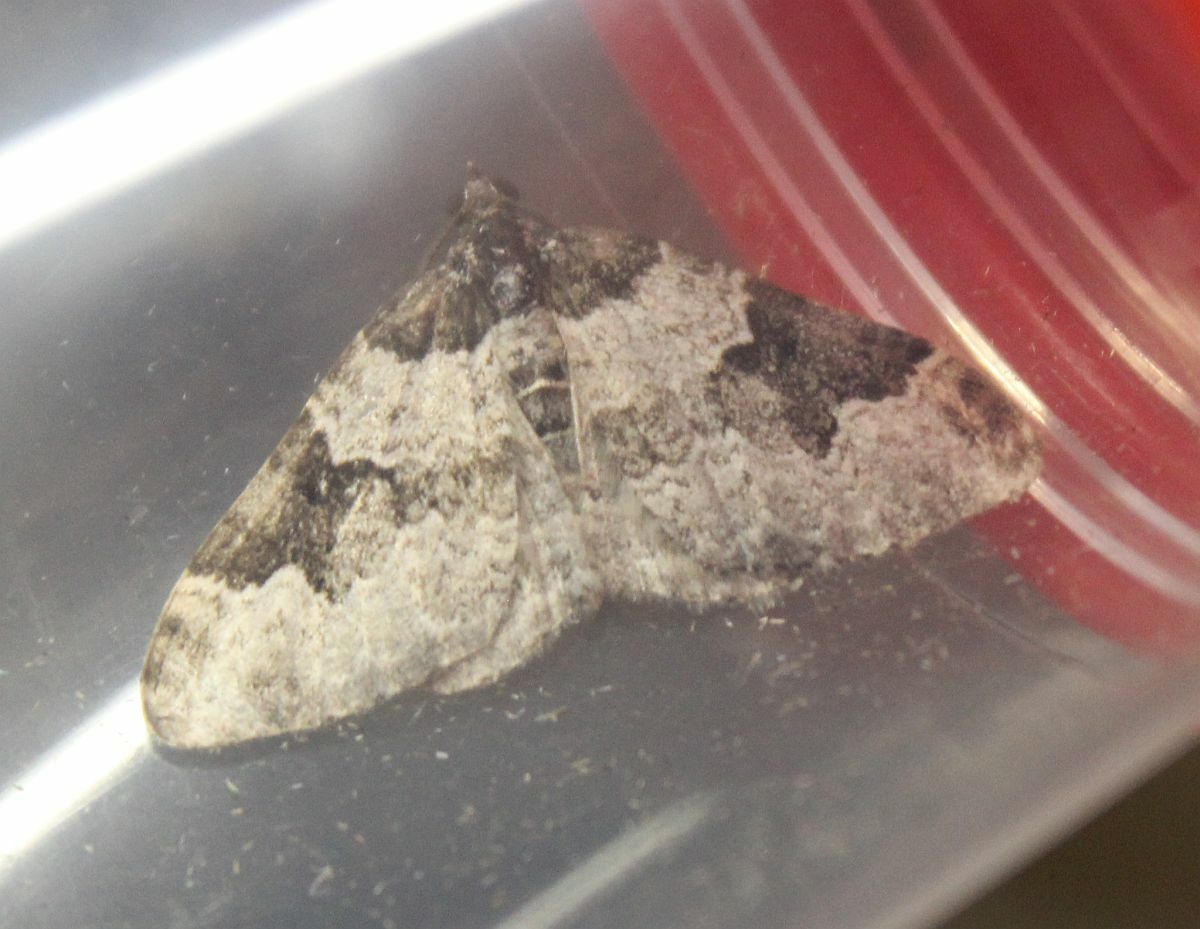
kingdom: Animalia
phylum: Arthropoda
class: Insecta
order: Lepidoptera
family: Geometridae
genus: Xanthorhoe
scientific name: Xanthorhoe fluctuata
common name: Garden carpet
